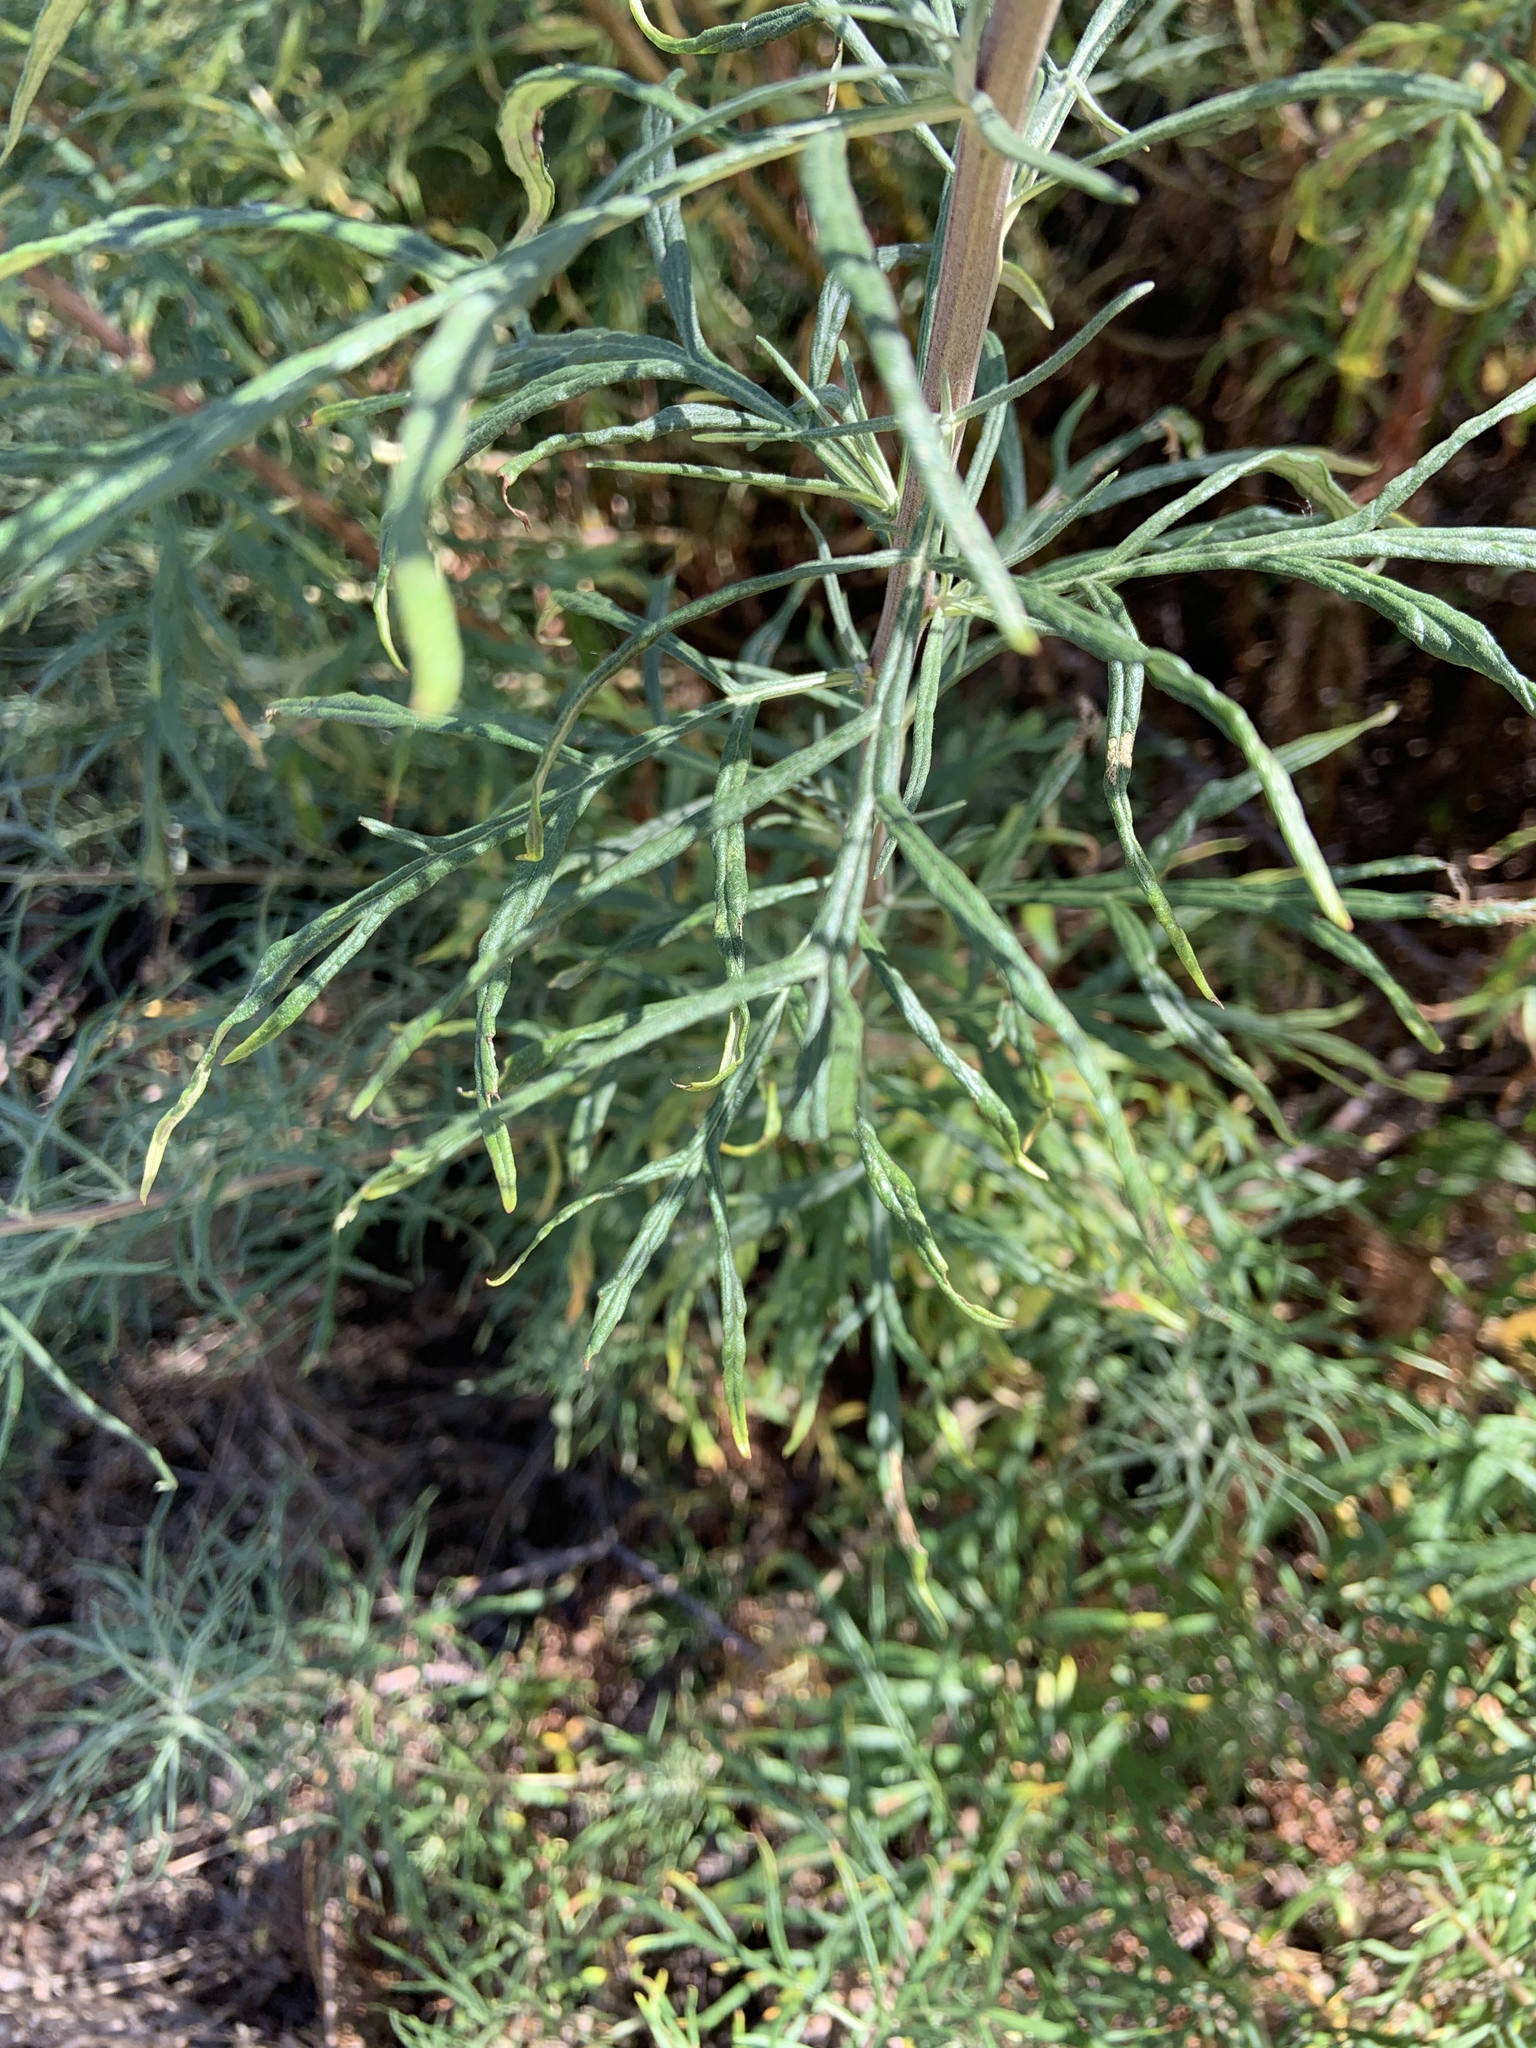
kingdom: Plantae
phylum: Tracheophyta
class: Magnoliopsida
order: Asterales
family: Asteraceae
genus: Artemisia
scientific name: Artemisia palmeri
